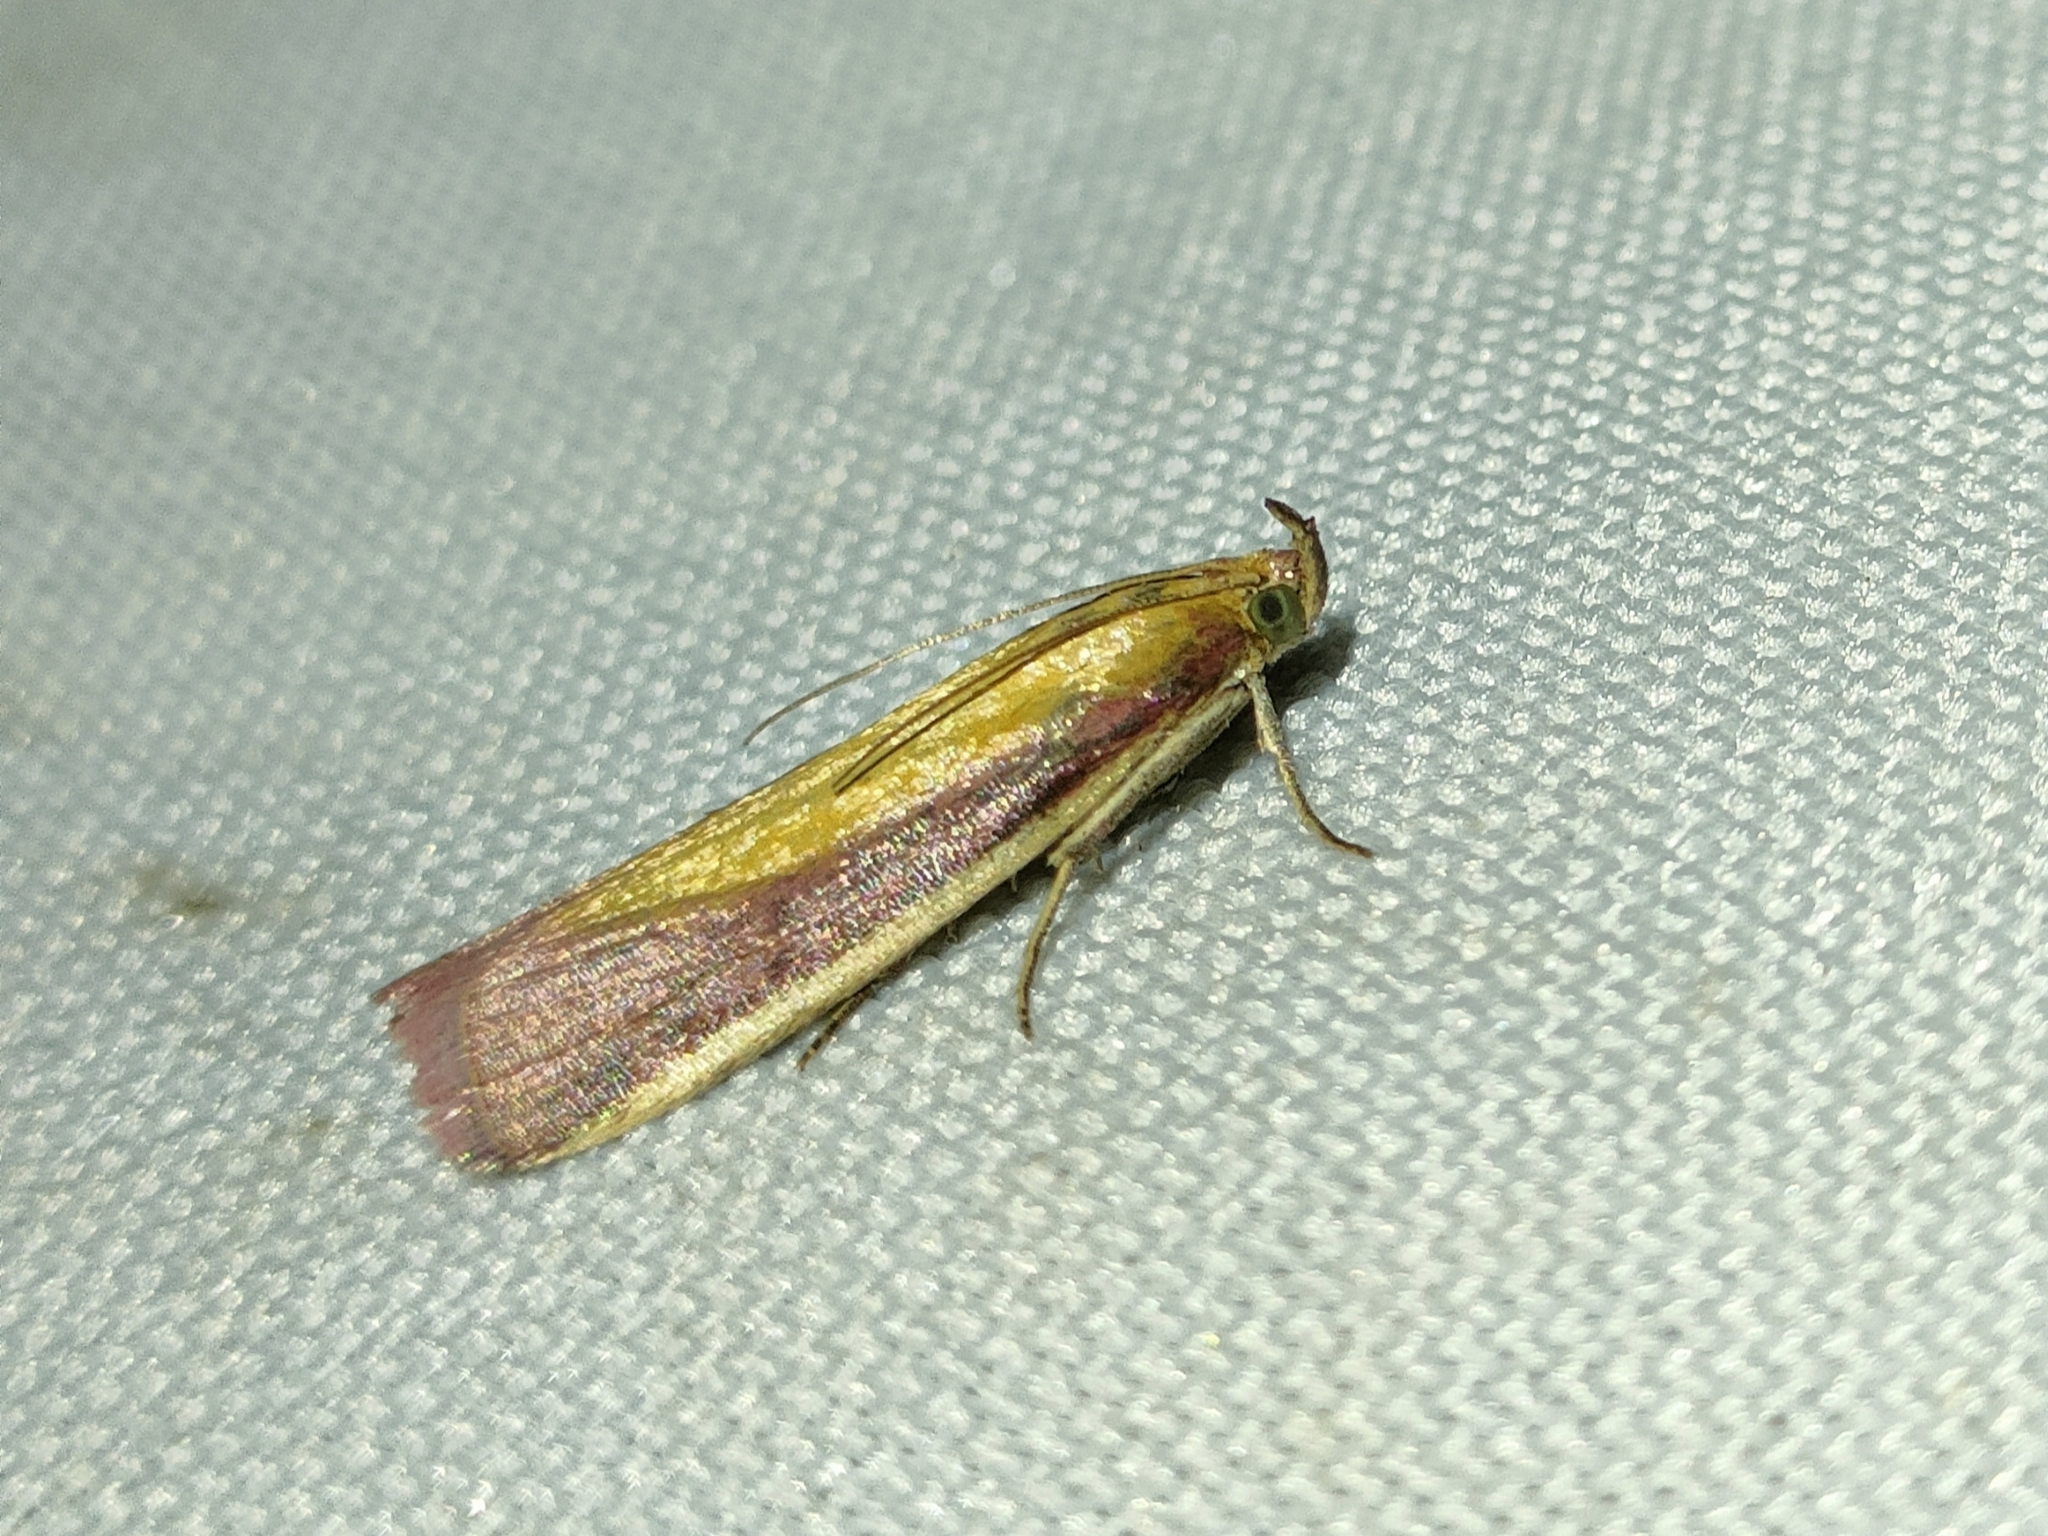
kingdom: Animalia
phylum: Arthropoda
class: Insecta
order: Lepidoptera
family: Pyralidae
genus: Oncocera
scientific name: Oncocera semirubella
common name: Rosy-striped knot-horn
